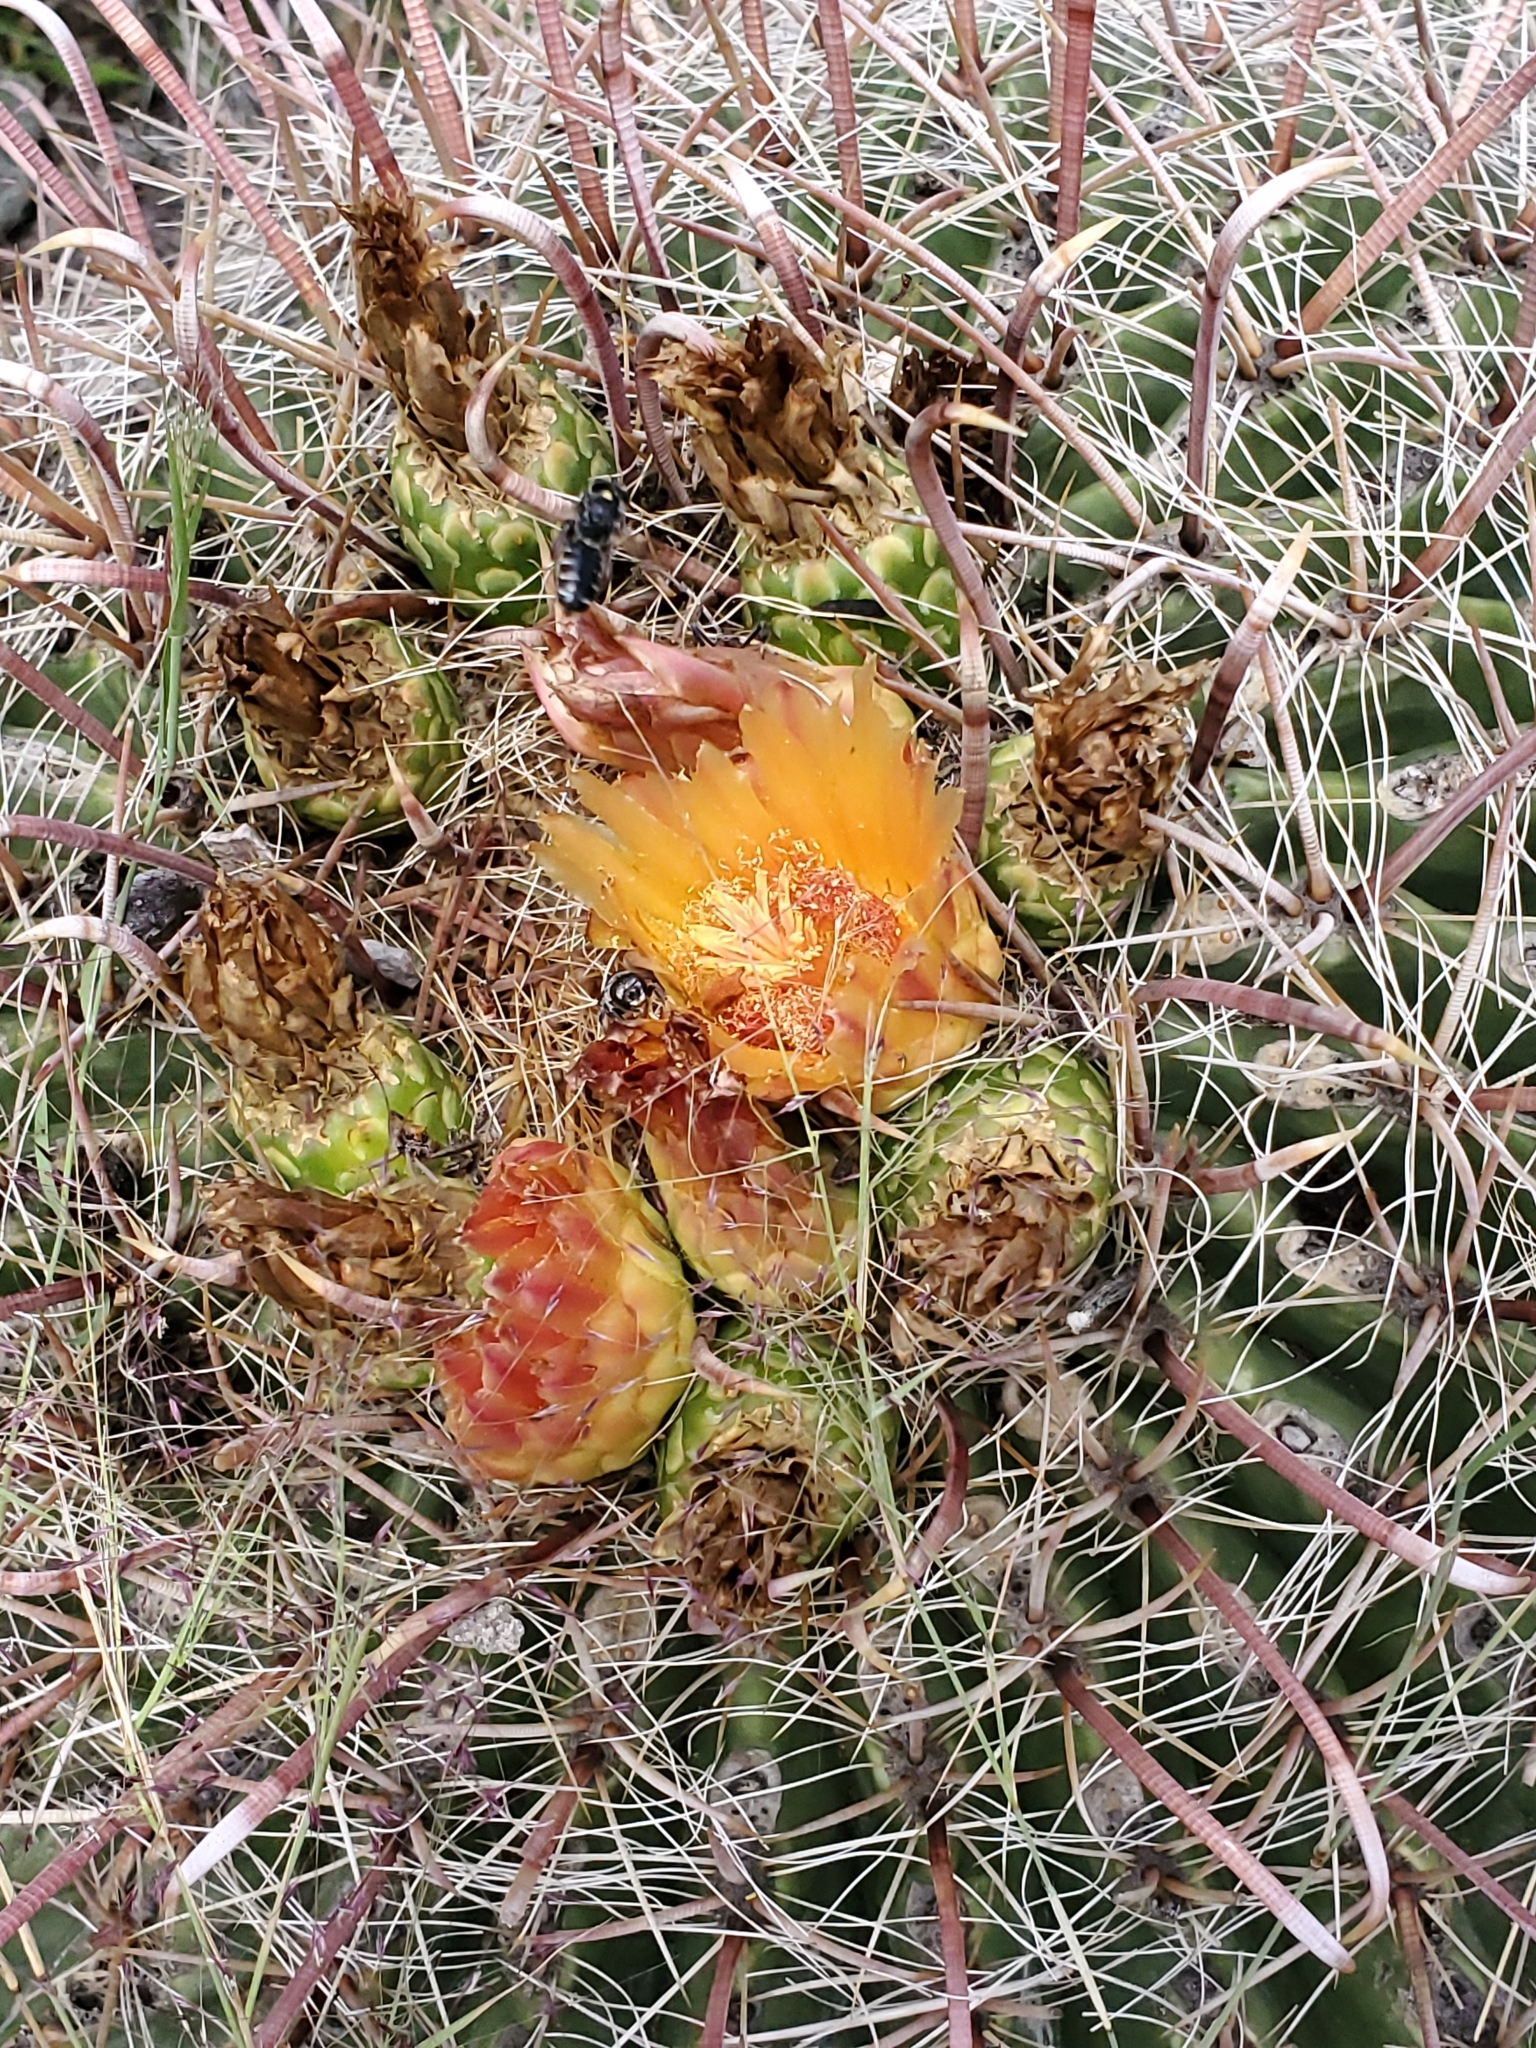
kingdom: Plantae
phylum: Tracheophyta
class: Magnoliopsida
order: Caryophyllales
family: Cactaceae
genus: Ferocactus
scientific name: Ferocactus wislizeni
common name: Candy barrel cactus
